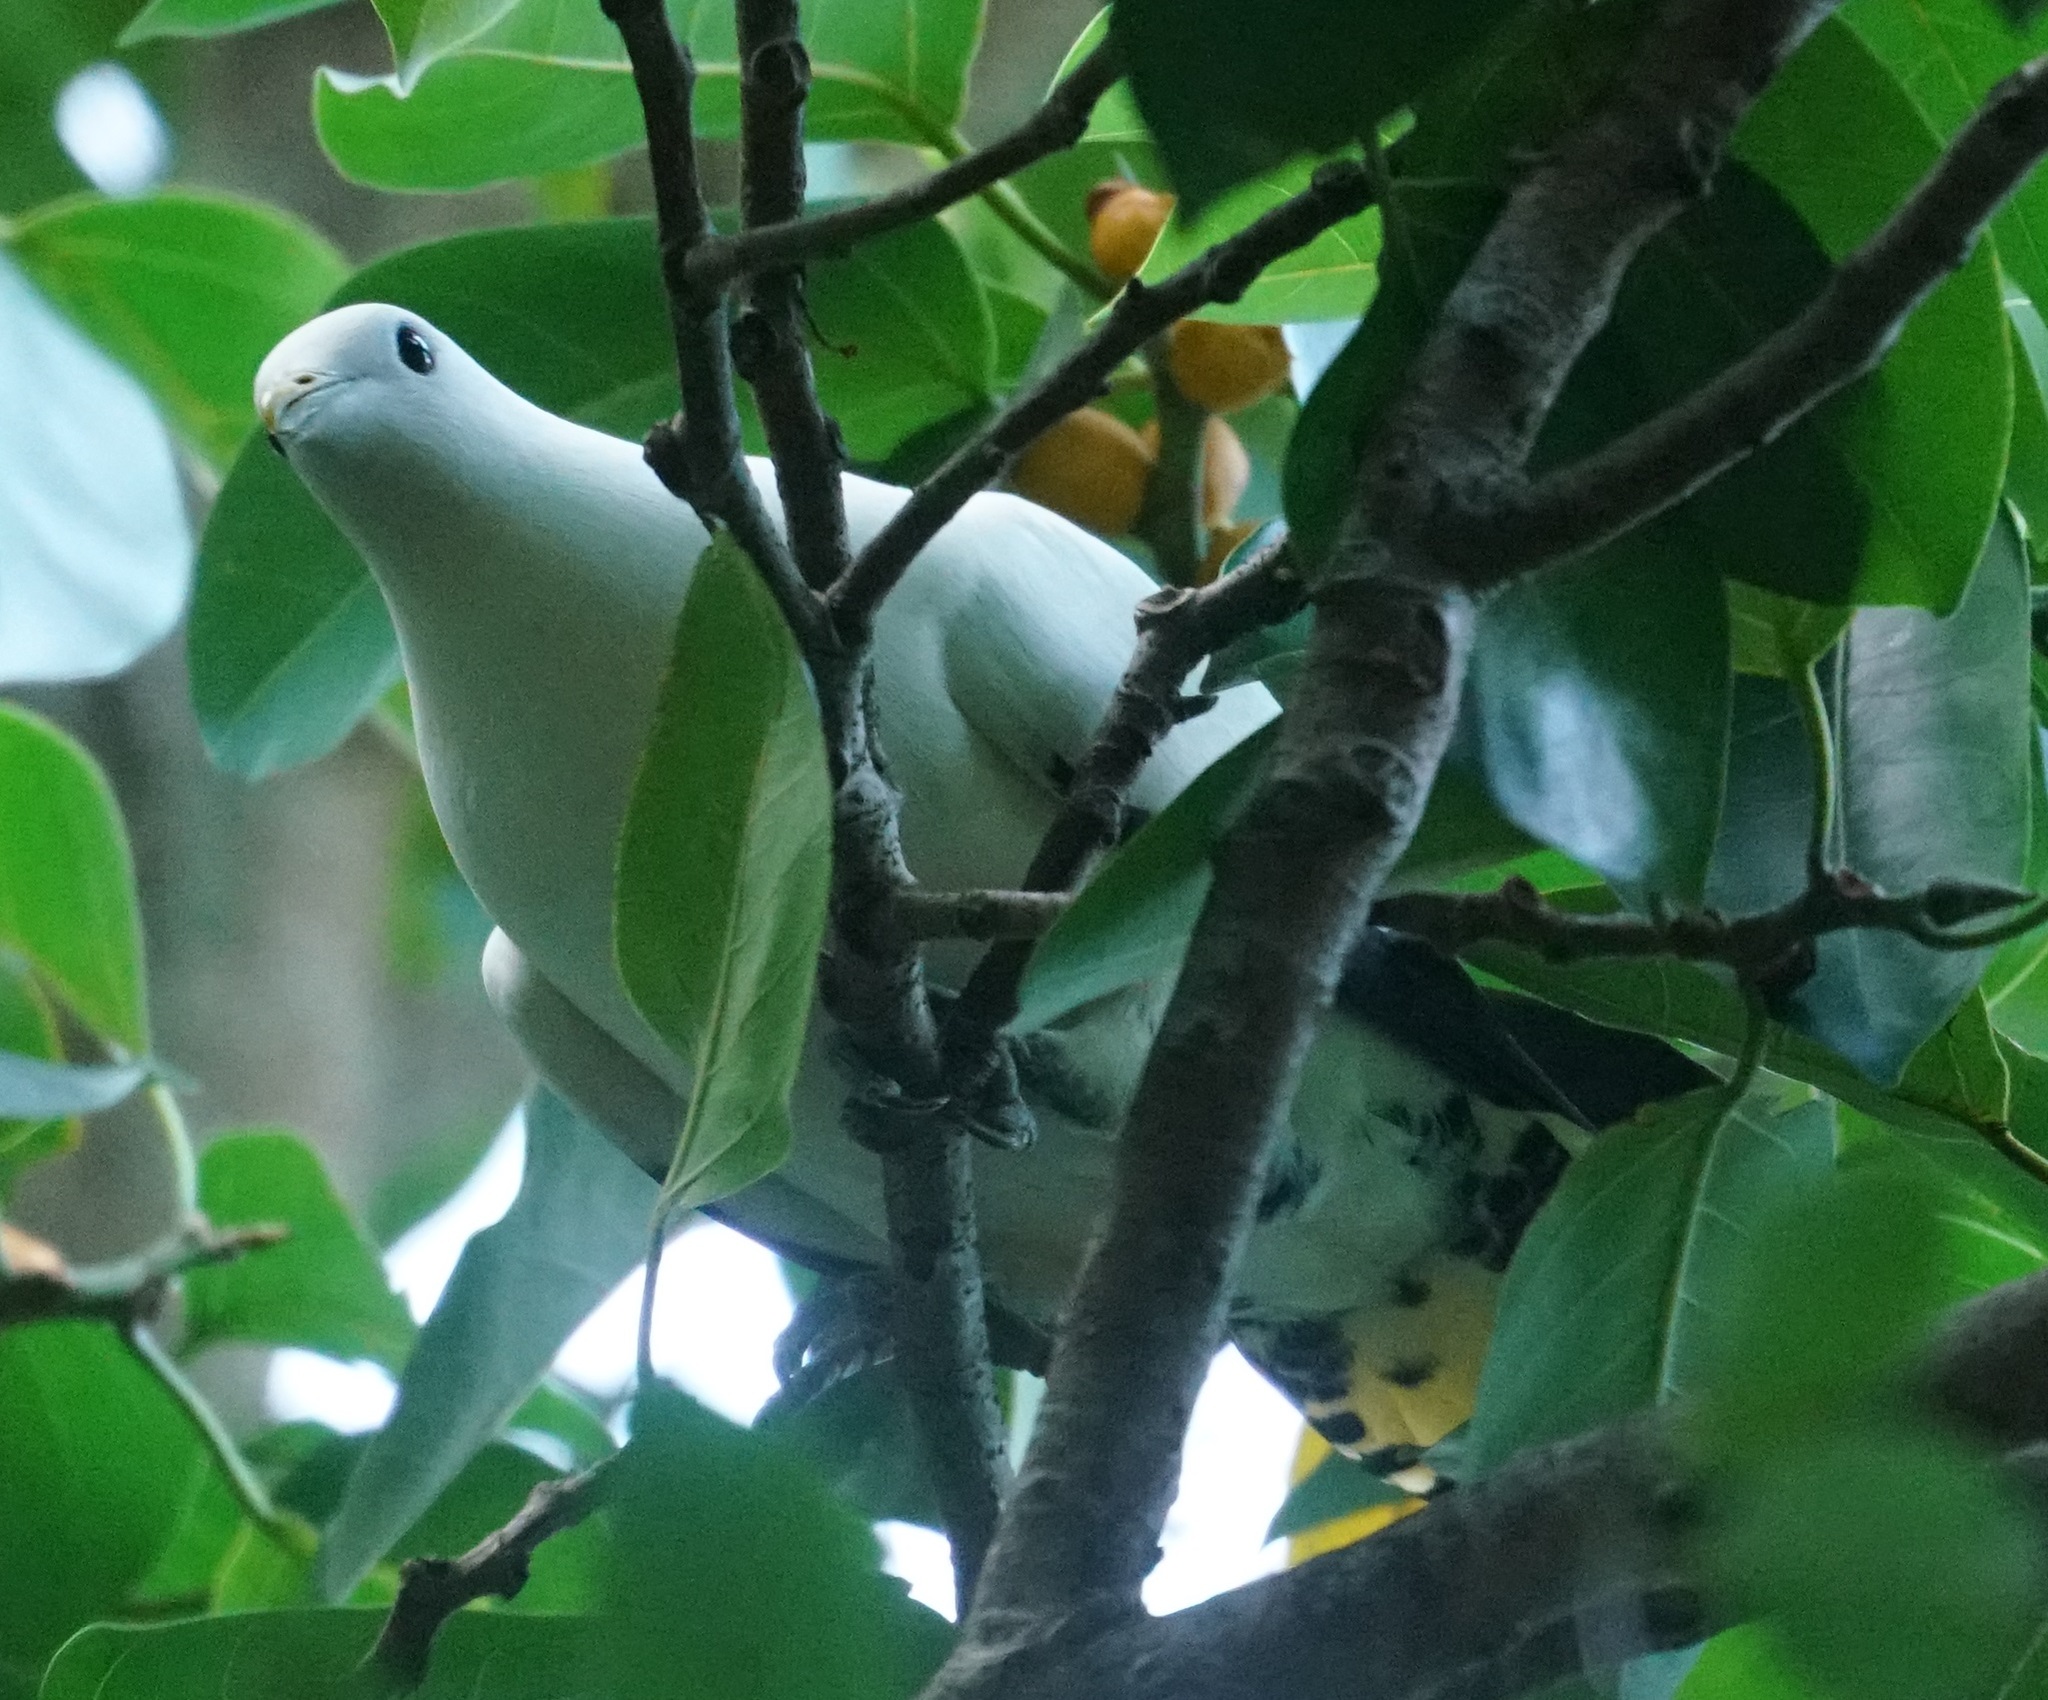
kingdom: Animalia
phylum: Chordata
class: Aves
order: Columbiformes
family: Columbidae
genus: Ducula
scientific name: Ducula spilorrhoa
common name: Torresian imperial pigeon
